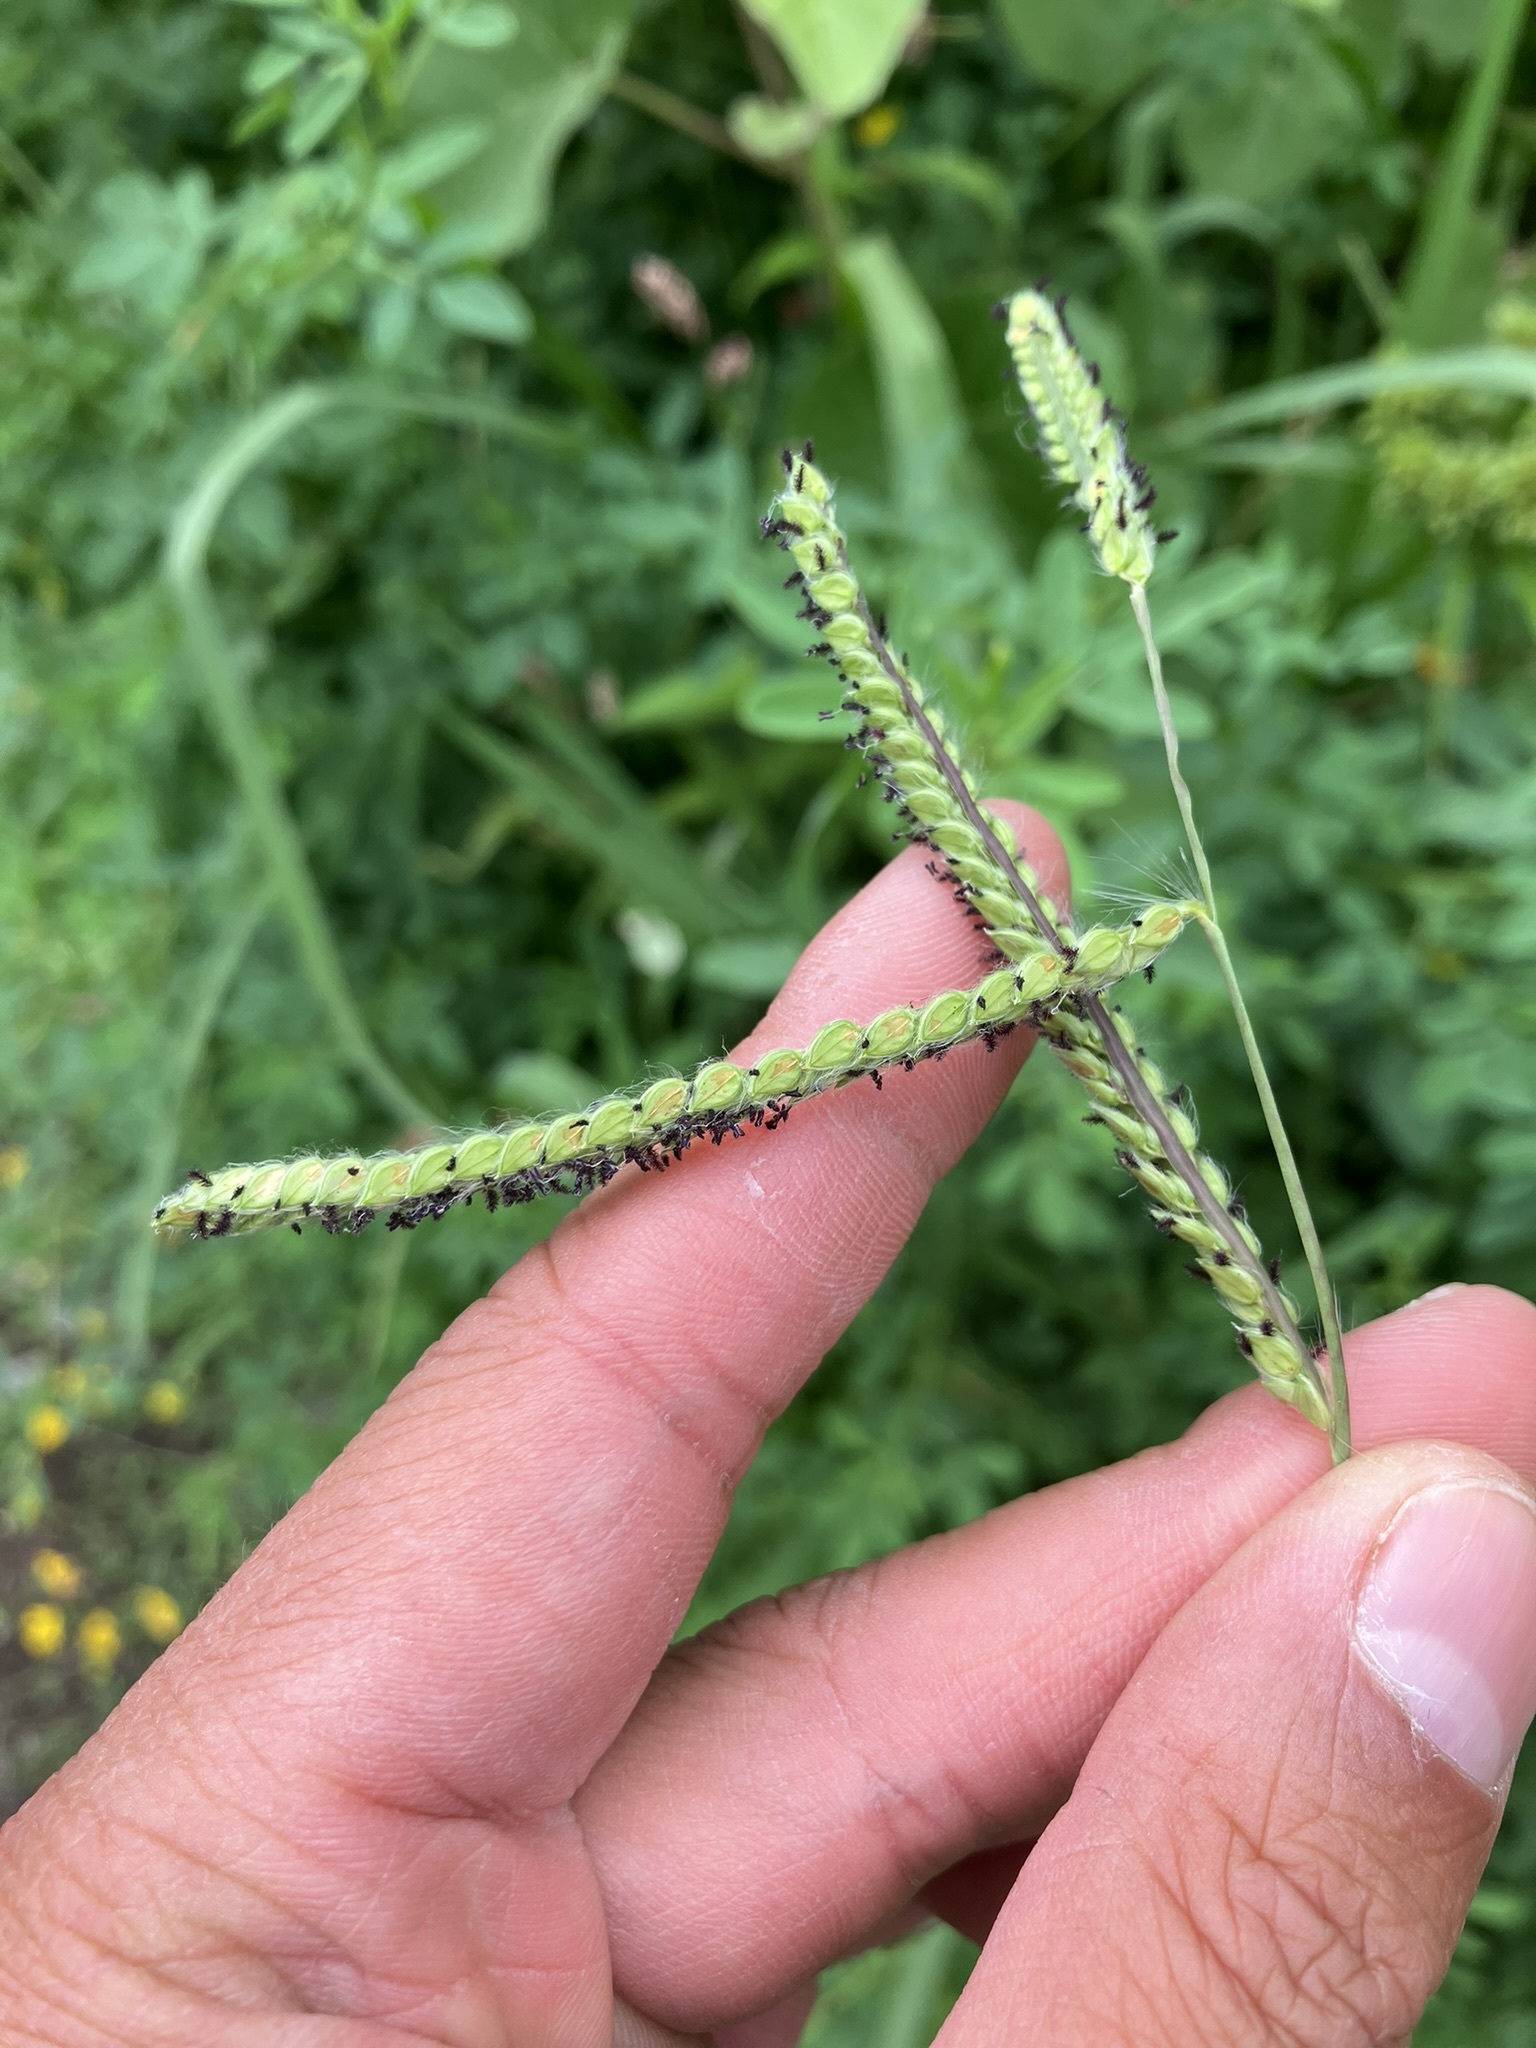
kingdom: Plantae
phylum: Tracheophyta
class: Liliopsida
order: Poales
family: Poaceae
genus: Paspalum
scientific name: Paspalum dilatatum
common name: Dallisgrass
